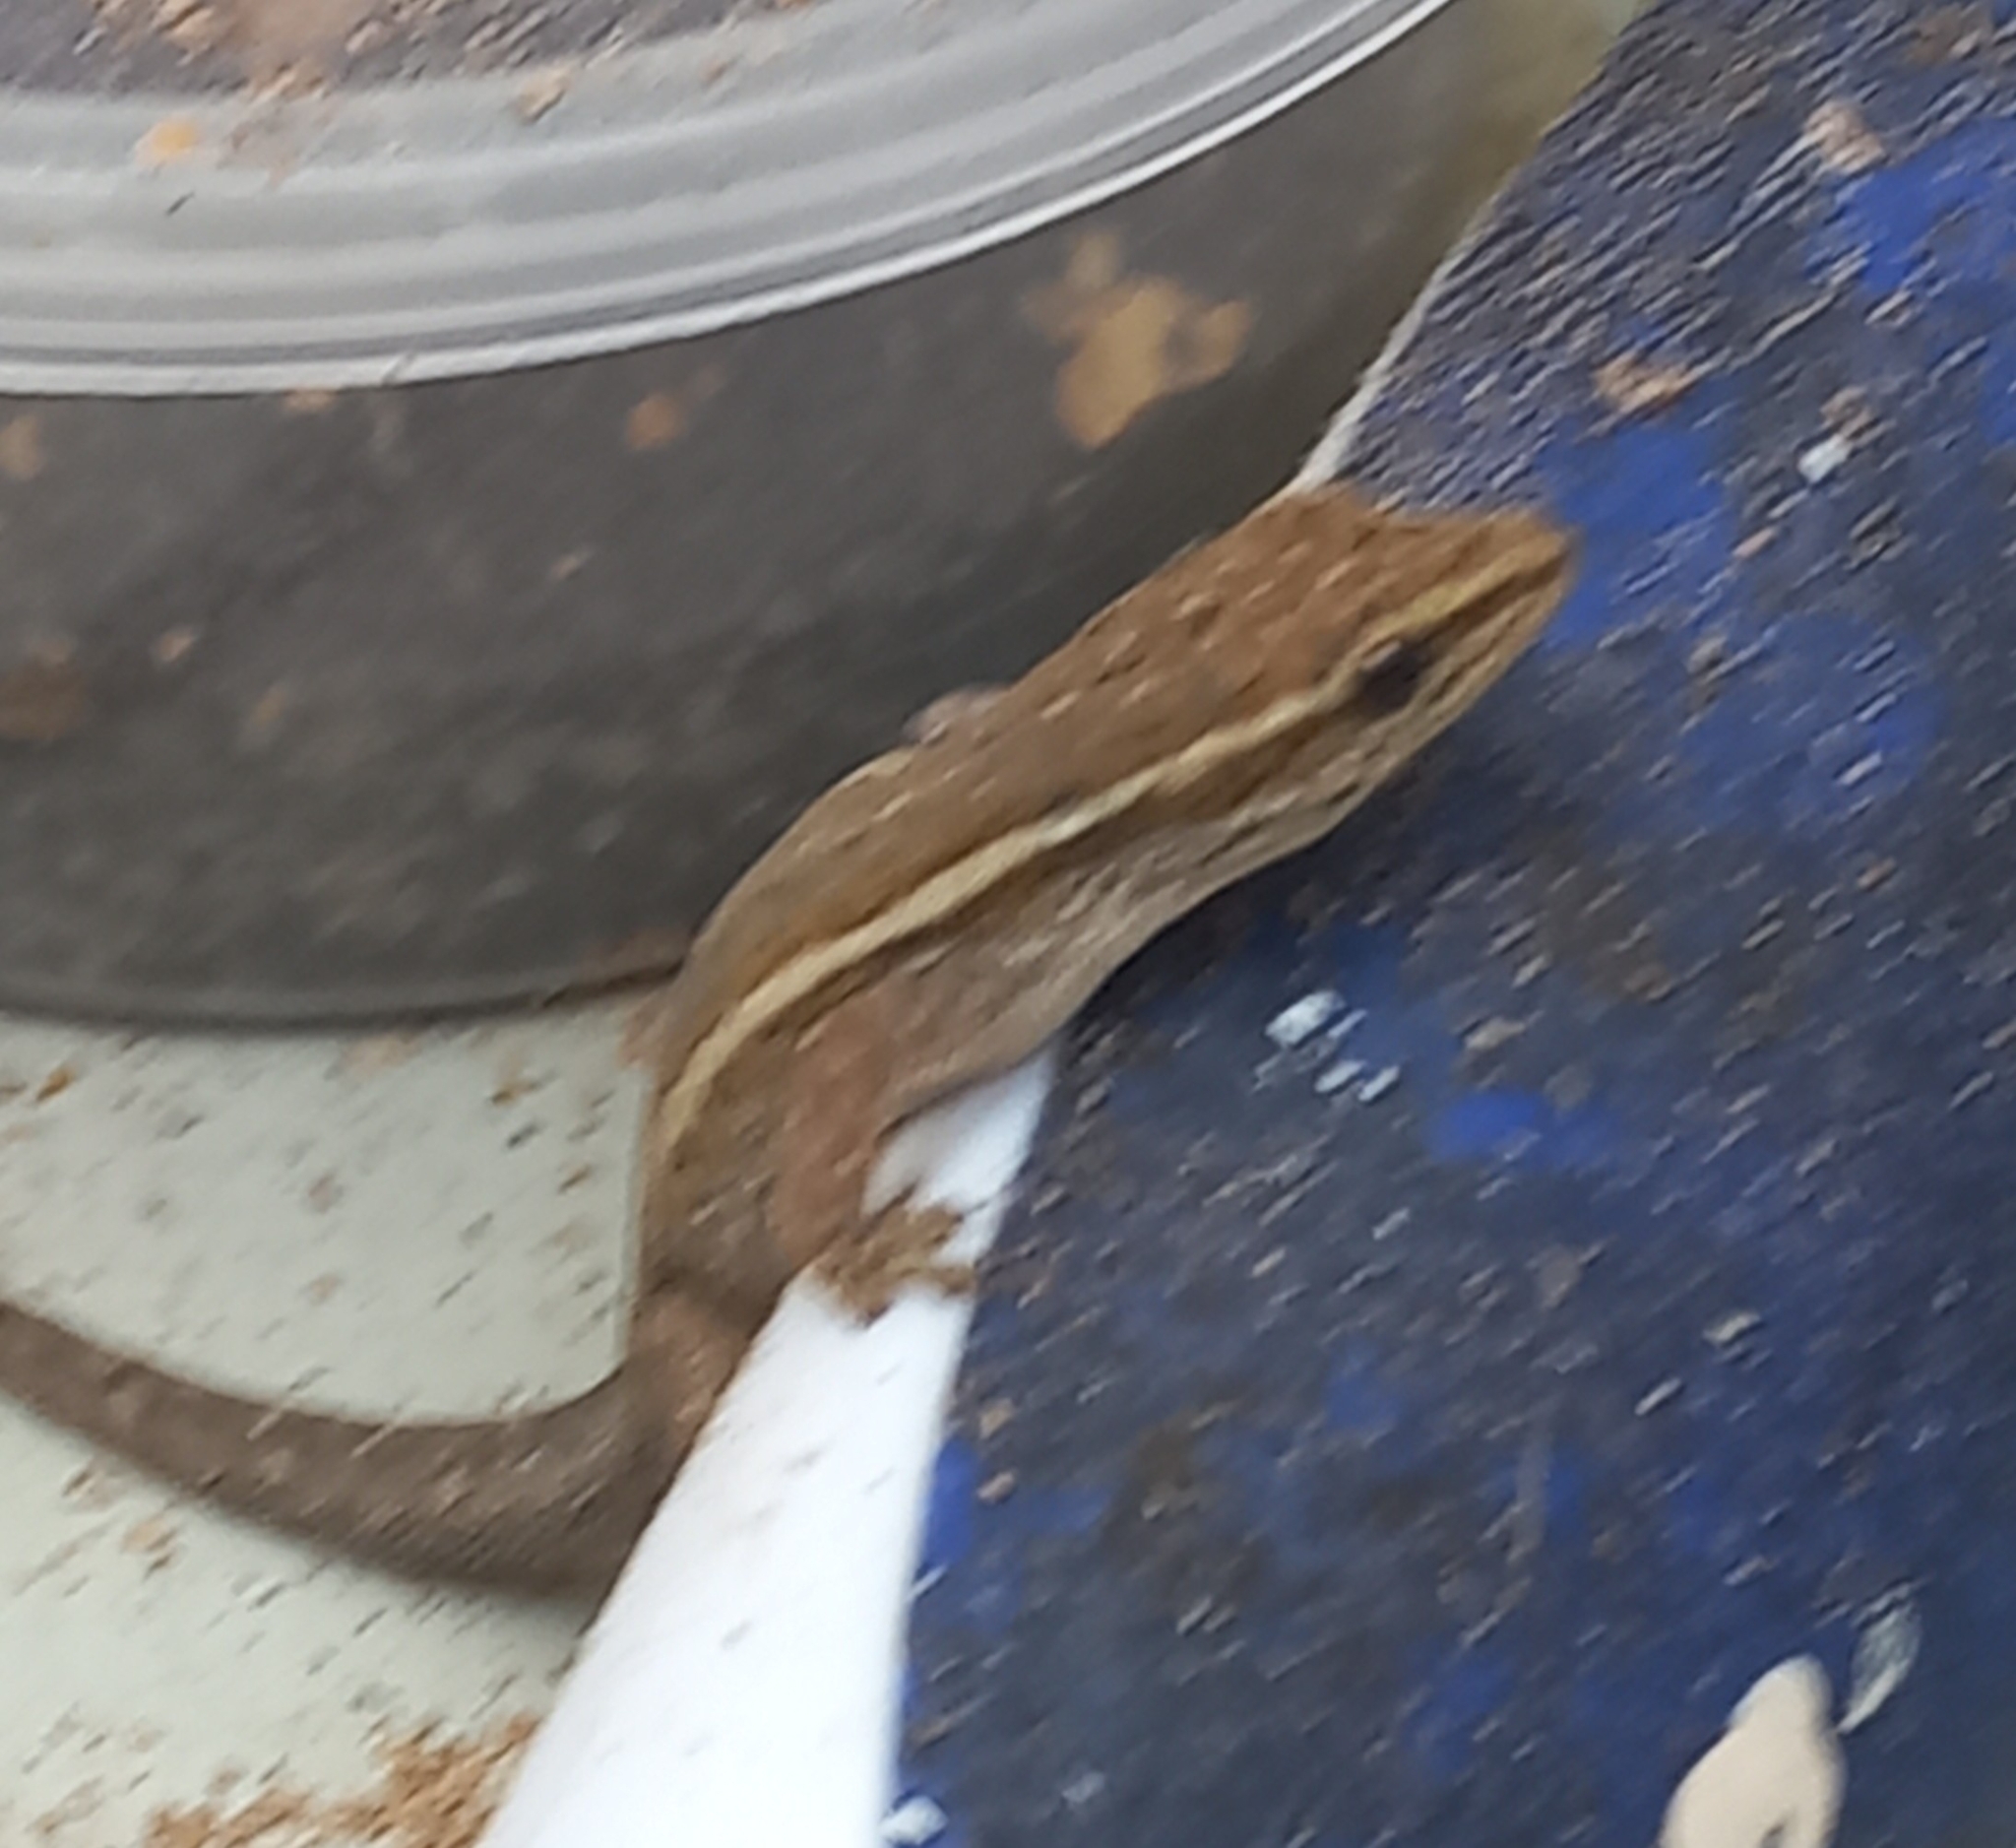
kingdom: Animalia
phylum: Chordata
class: Squamata
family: Gekkonidae
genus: Lygodactylus
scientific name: Lygodactylus capensis
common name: Cape dwarf gecko
